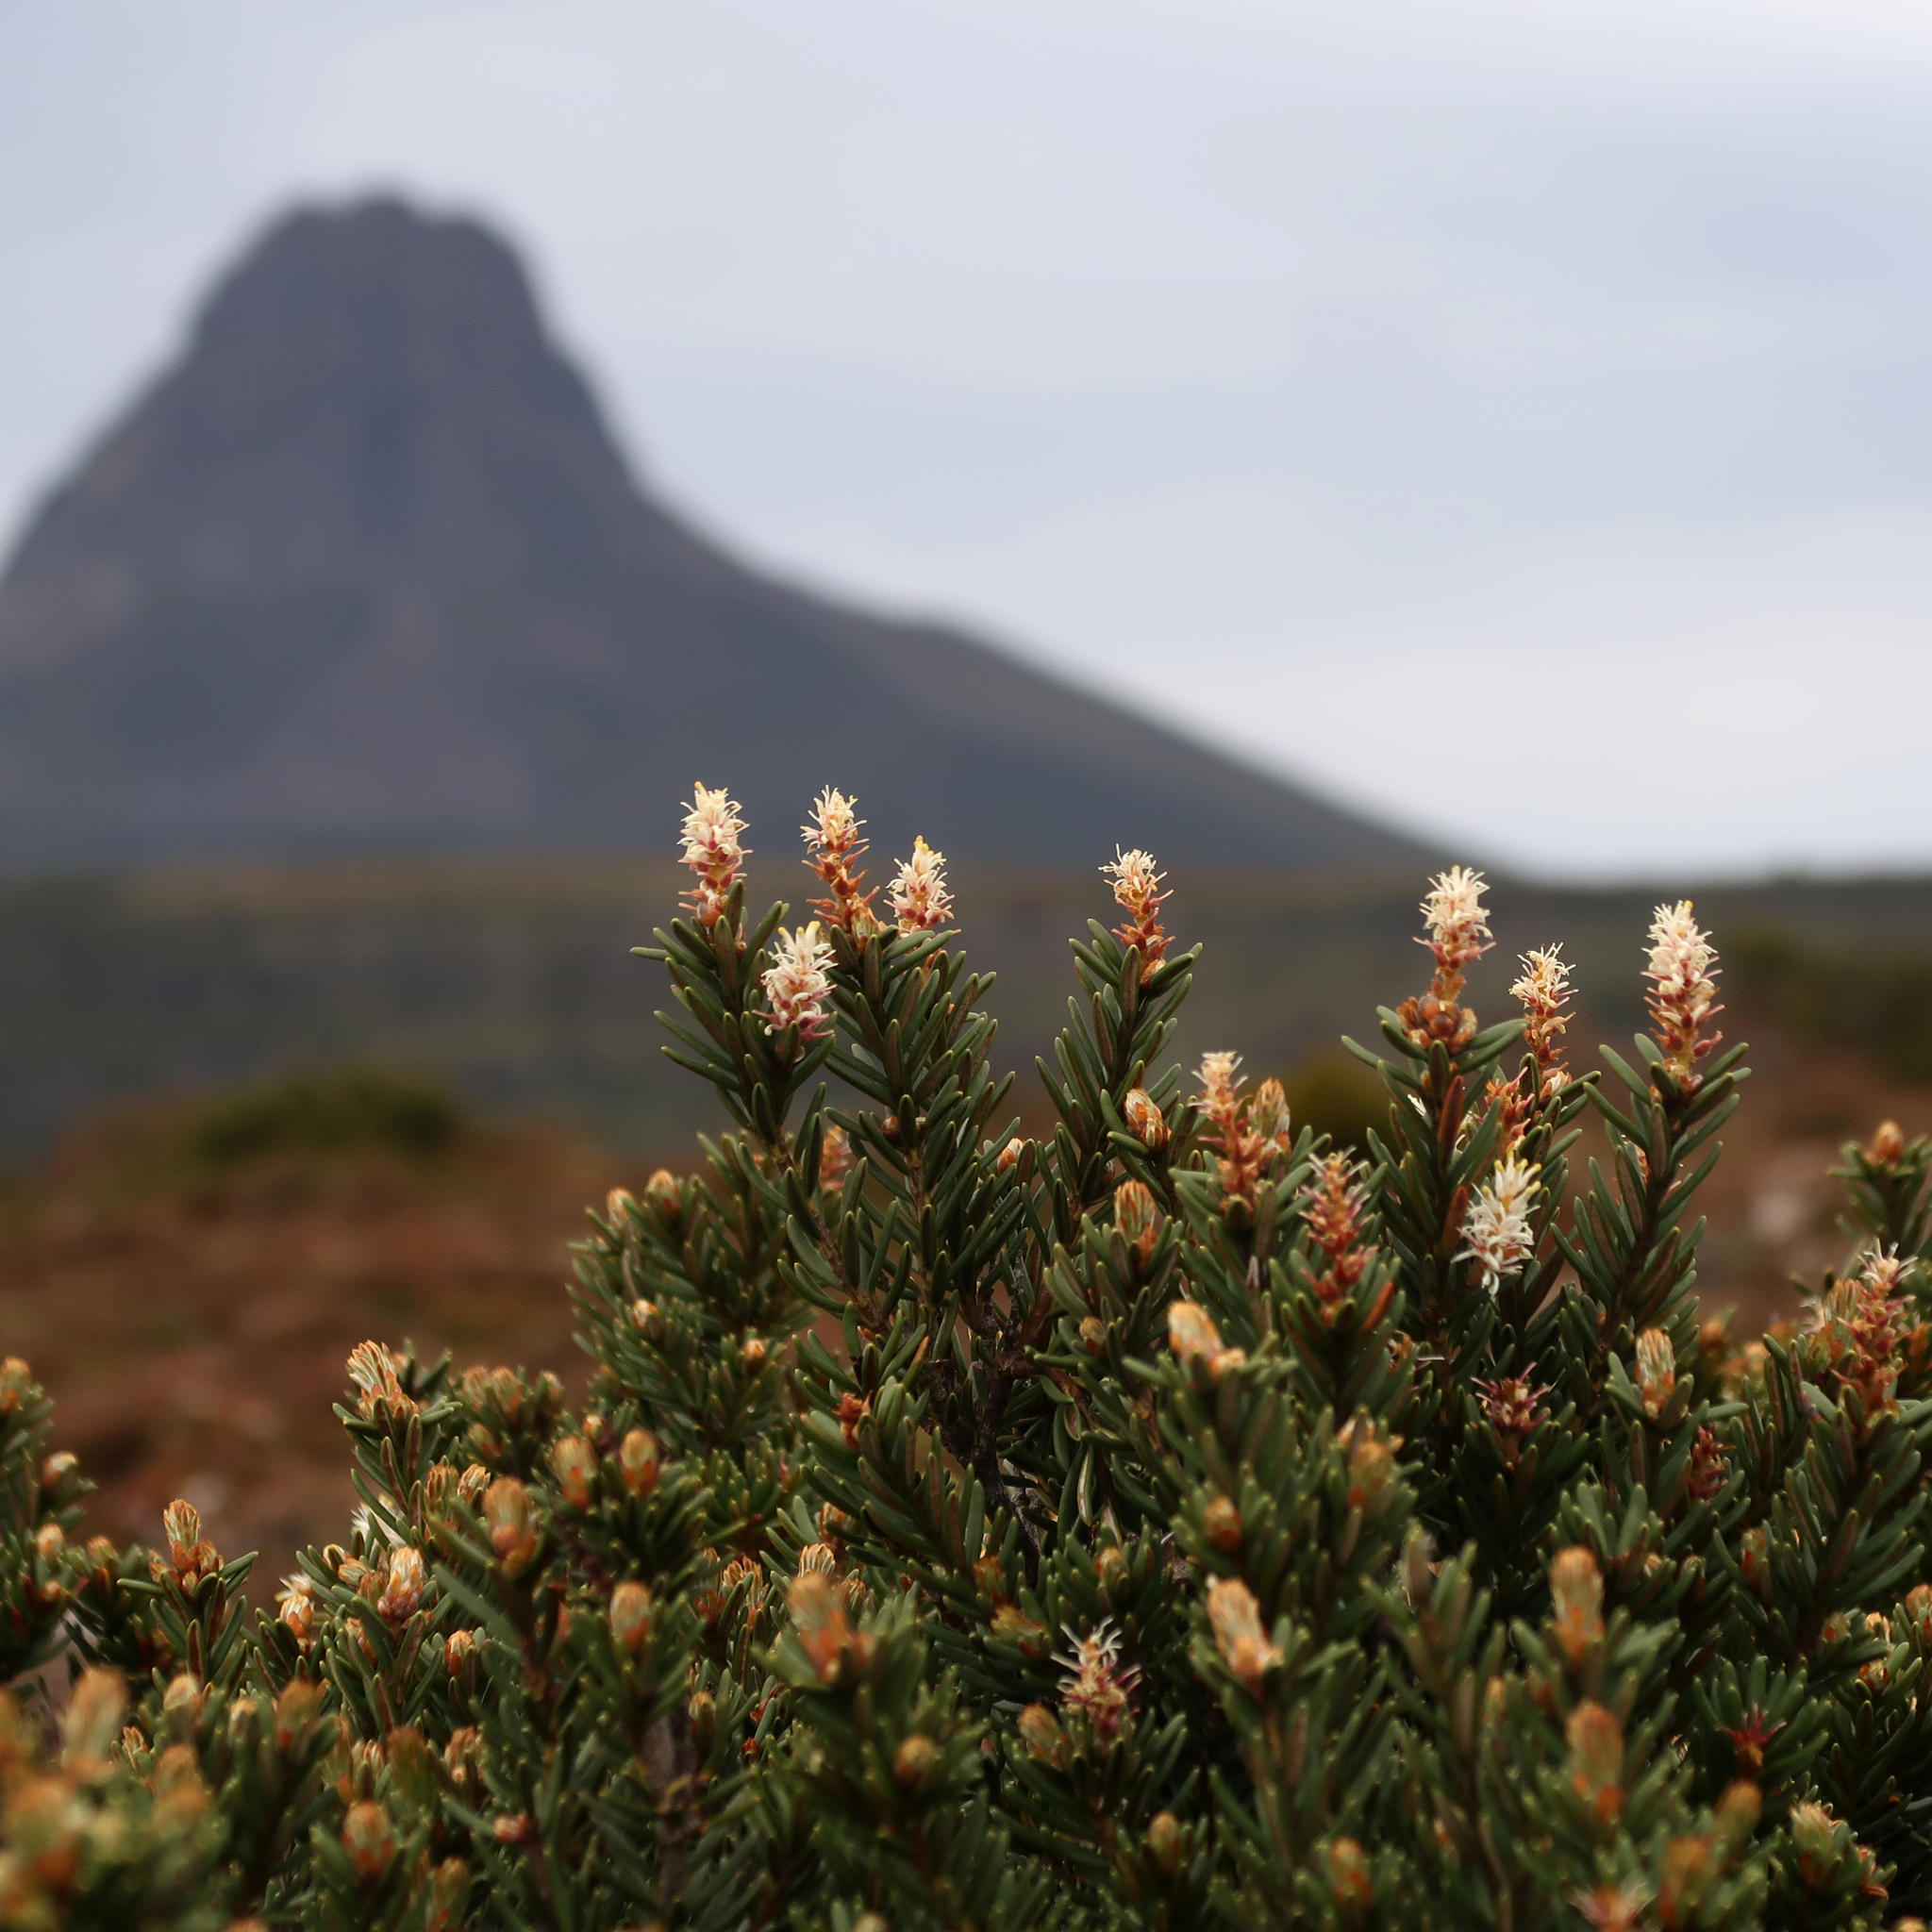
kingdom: Plantae
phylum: Tracheophyta
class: Magnoliopsida
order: Proteales
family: Proteaceae
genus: Orites
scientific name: Orites revolutus
